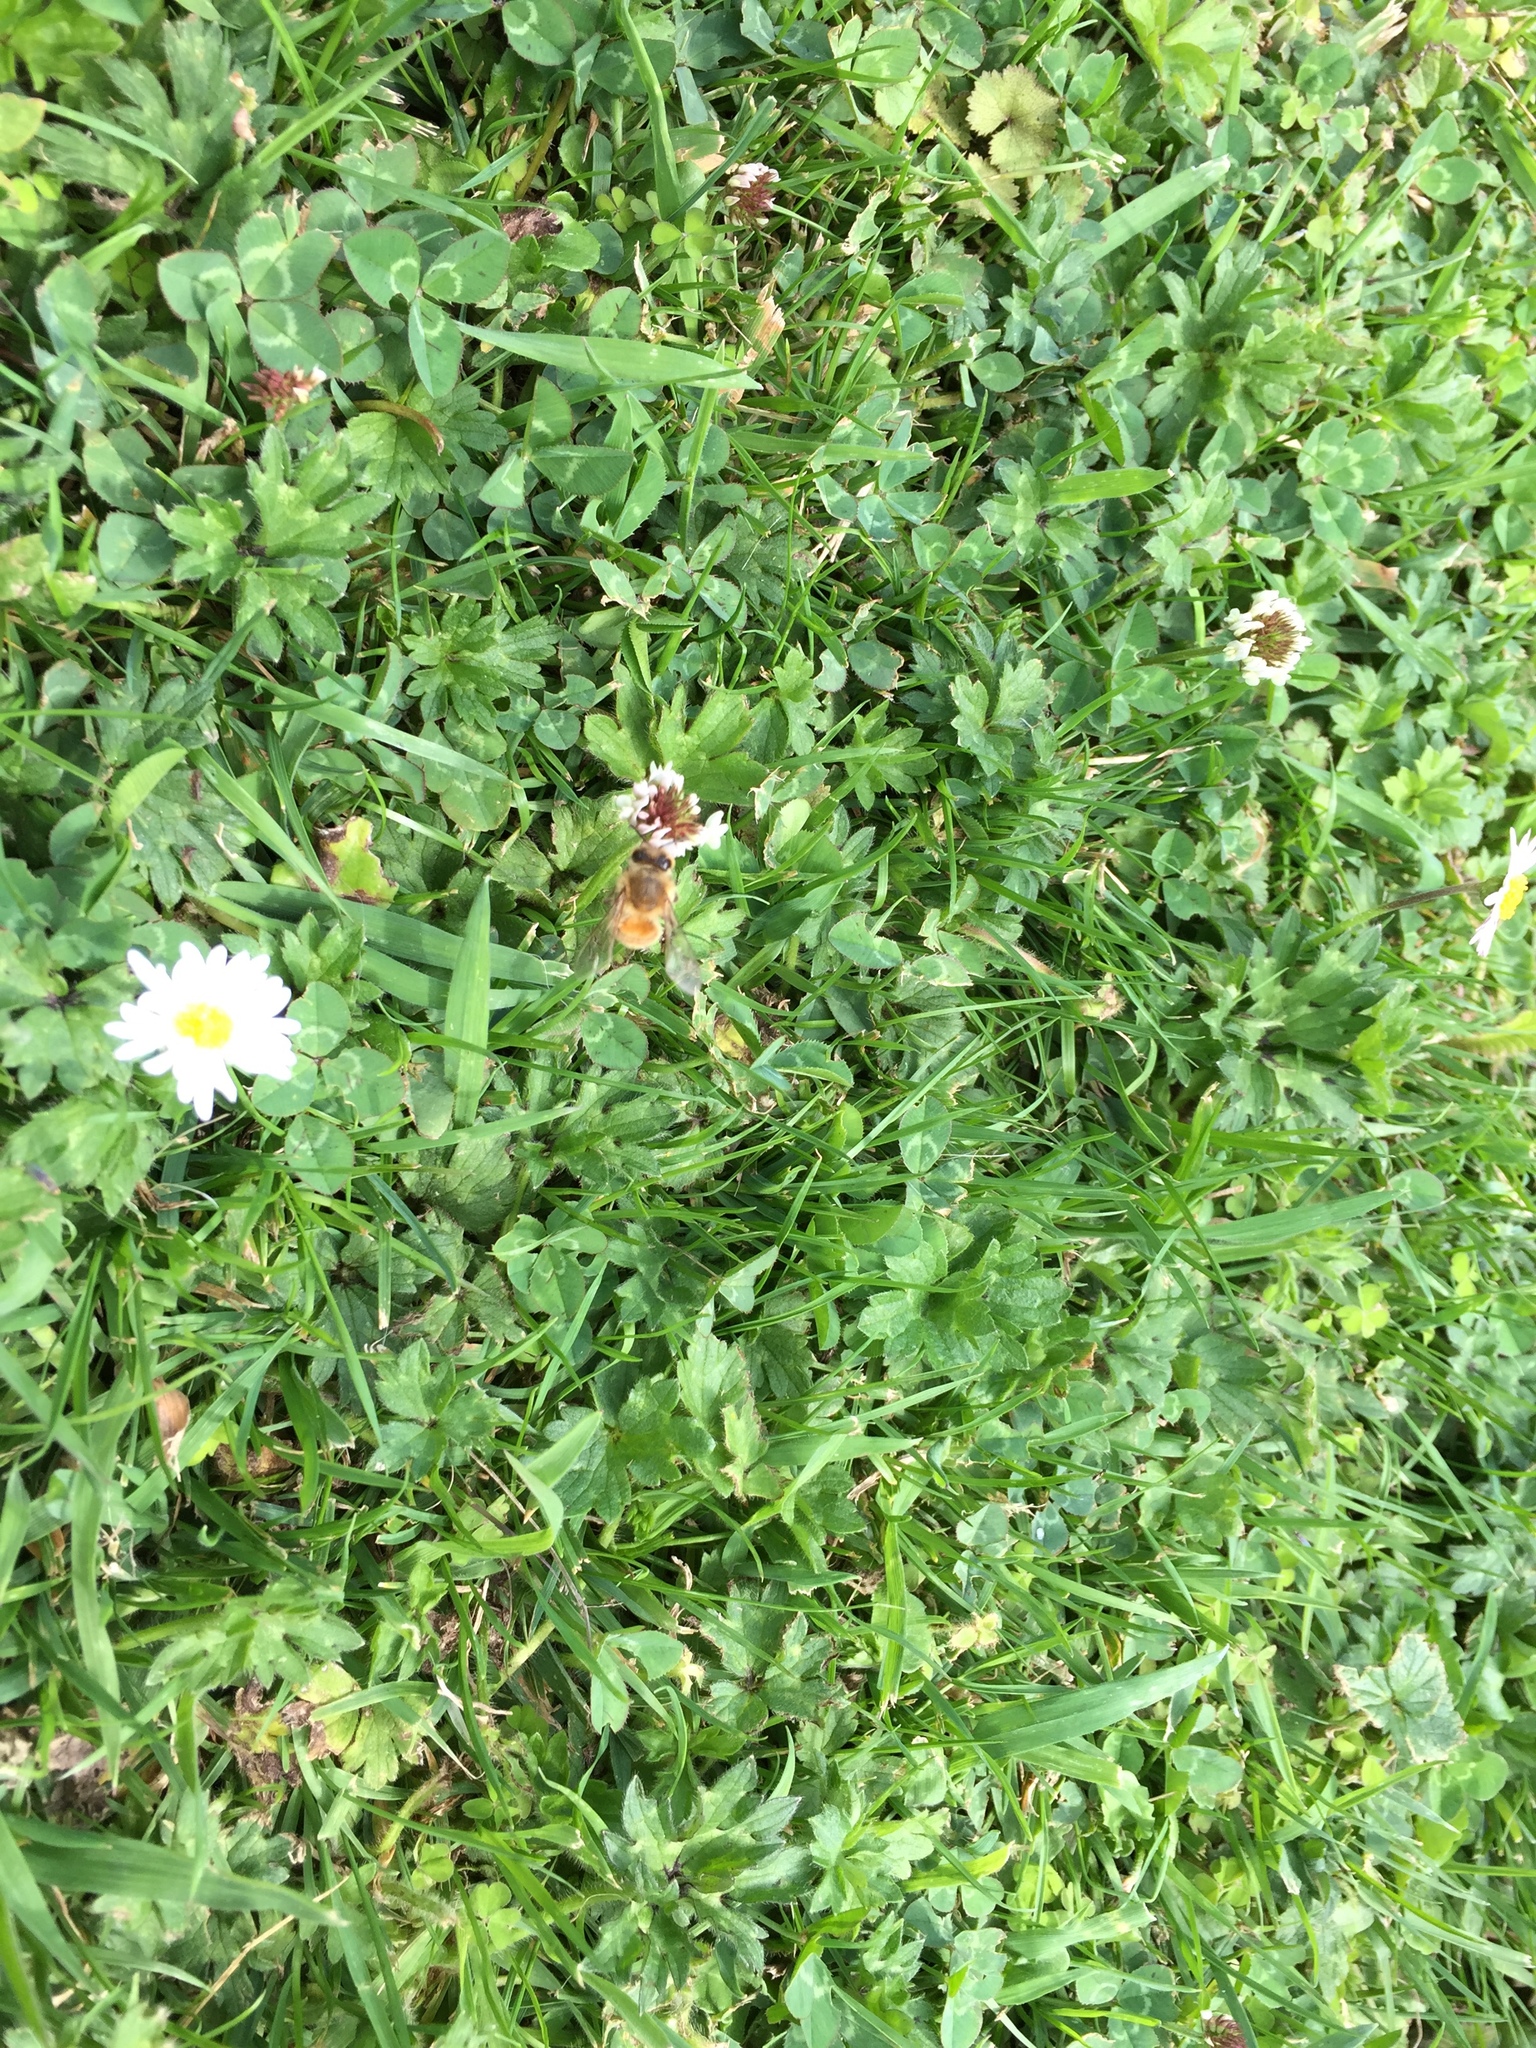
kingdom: Animalia
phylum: Arthropoda
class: Insecta
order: Hymenoptera
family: Apidae
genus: Apis
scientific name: Apis mellifera
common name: Honey bee
